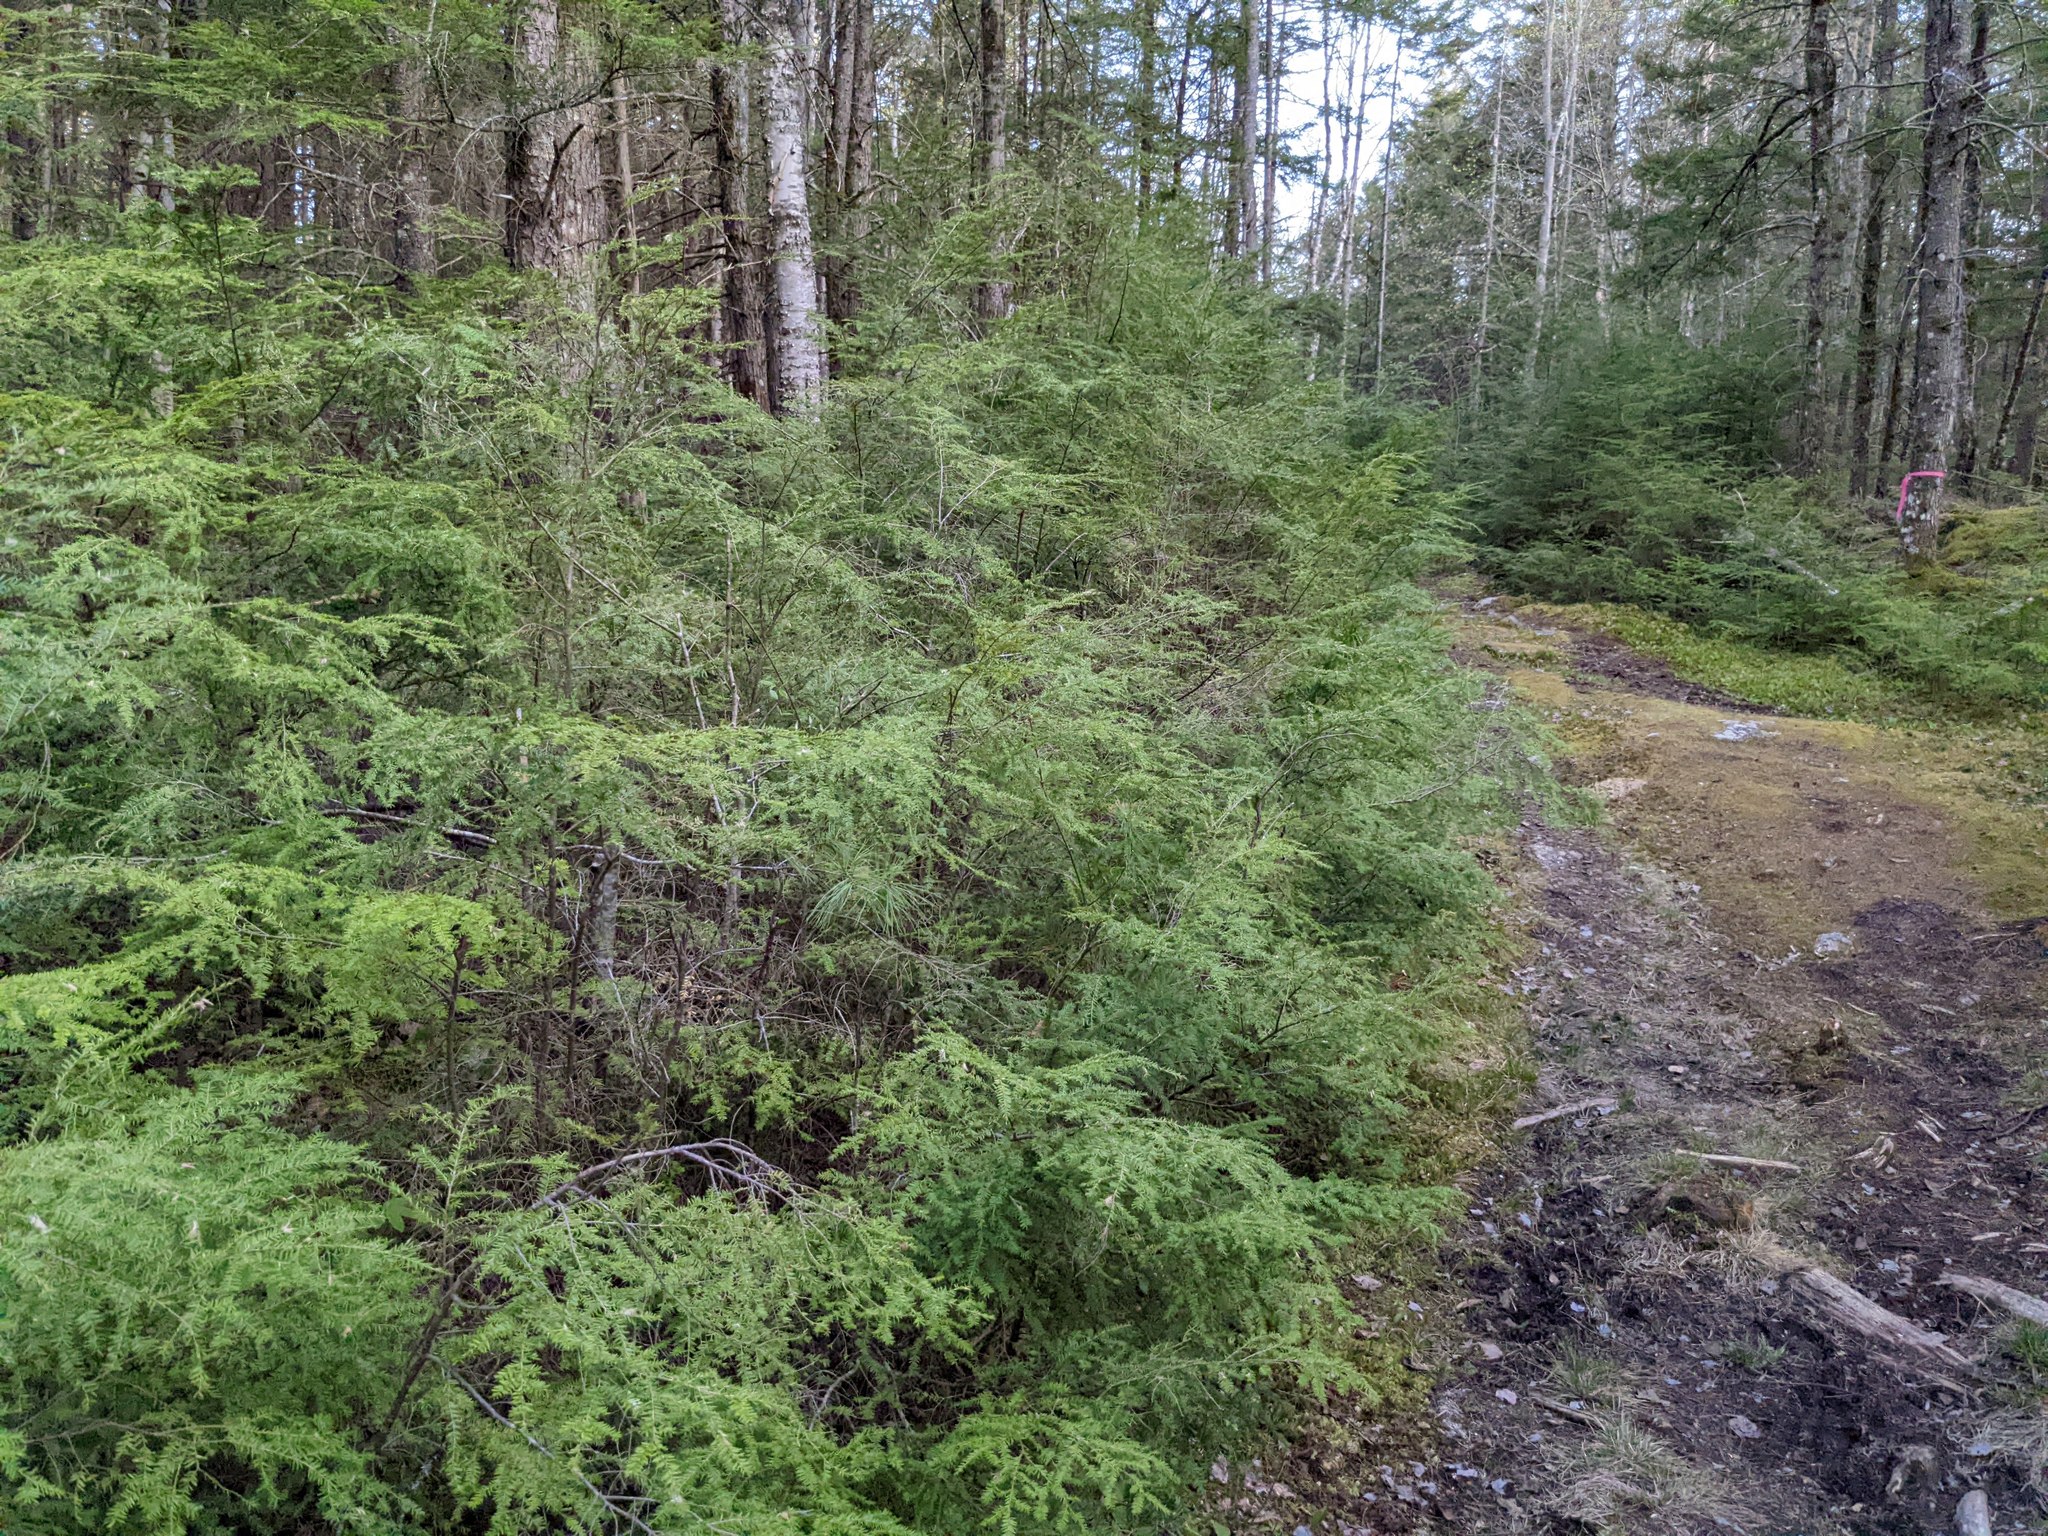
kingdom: Plantae
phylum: Tracheophyta
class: Pinopsida
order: Pinales
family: Pinaceae
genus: Tsuga
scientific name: Tsuga canadensis
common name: Eastern hemlock
